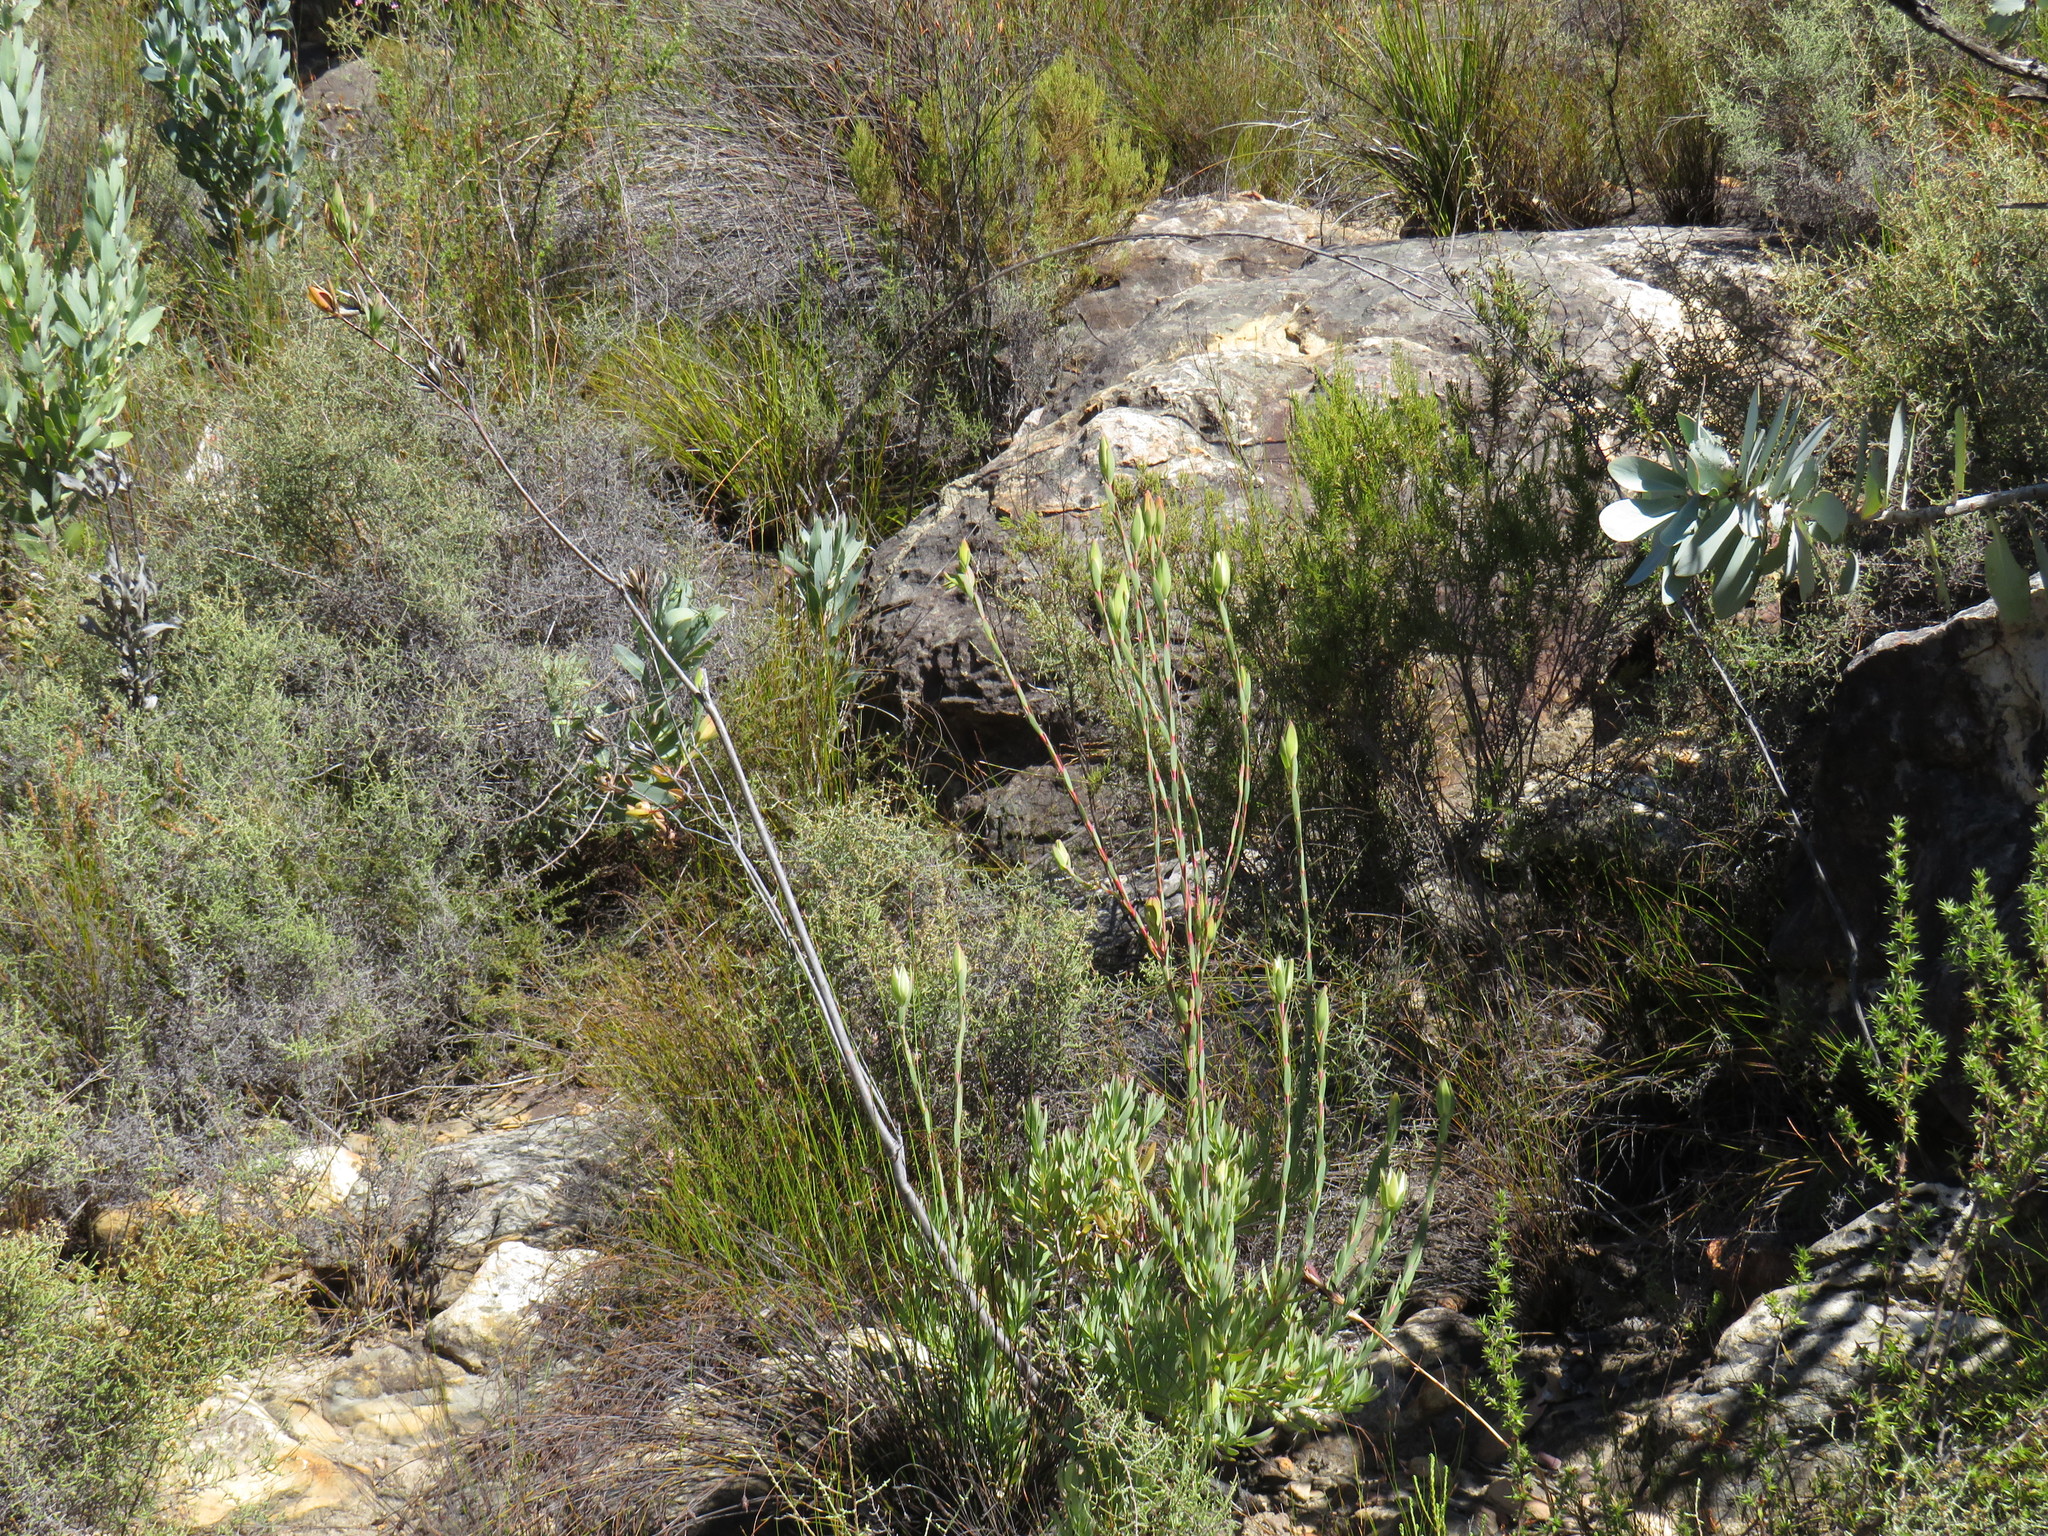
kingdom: Plantae
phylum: Tracheophyta
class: Magnoliopsida
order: Proteales
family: Proteaceae
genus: Leucadendron
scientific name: Leucadendron diemontianum
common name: Visgat conebush
